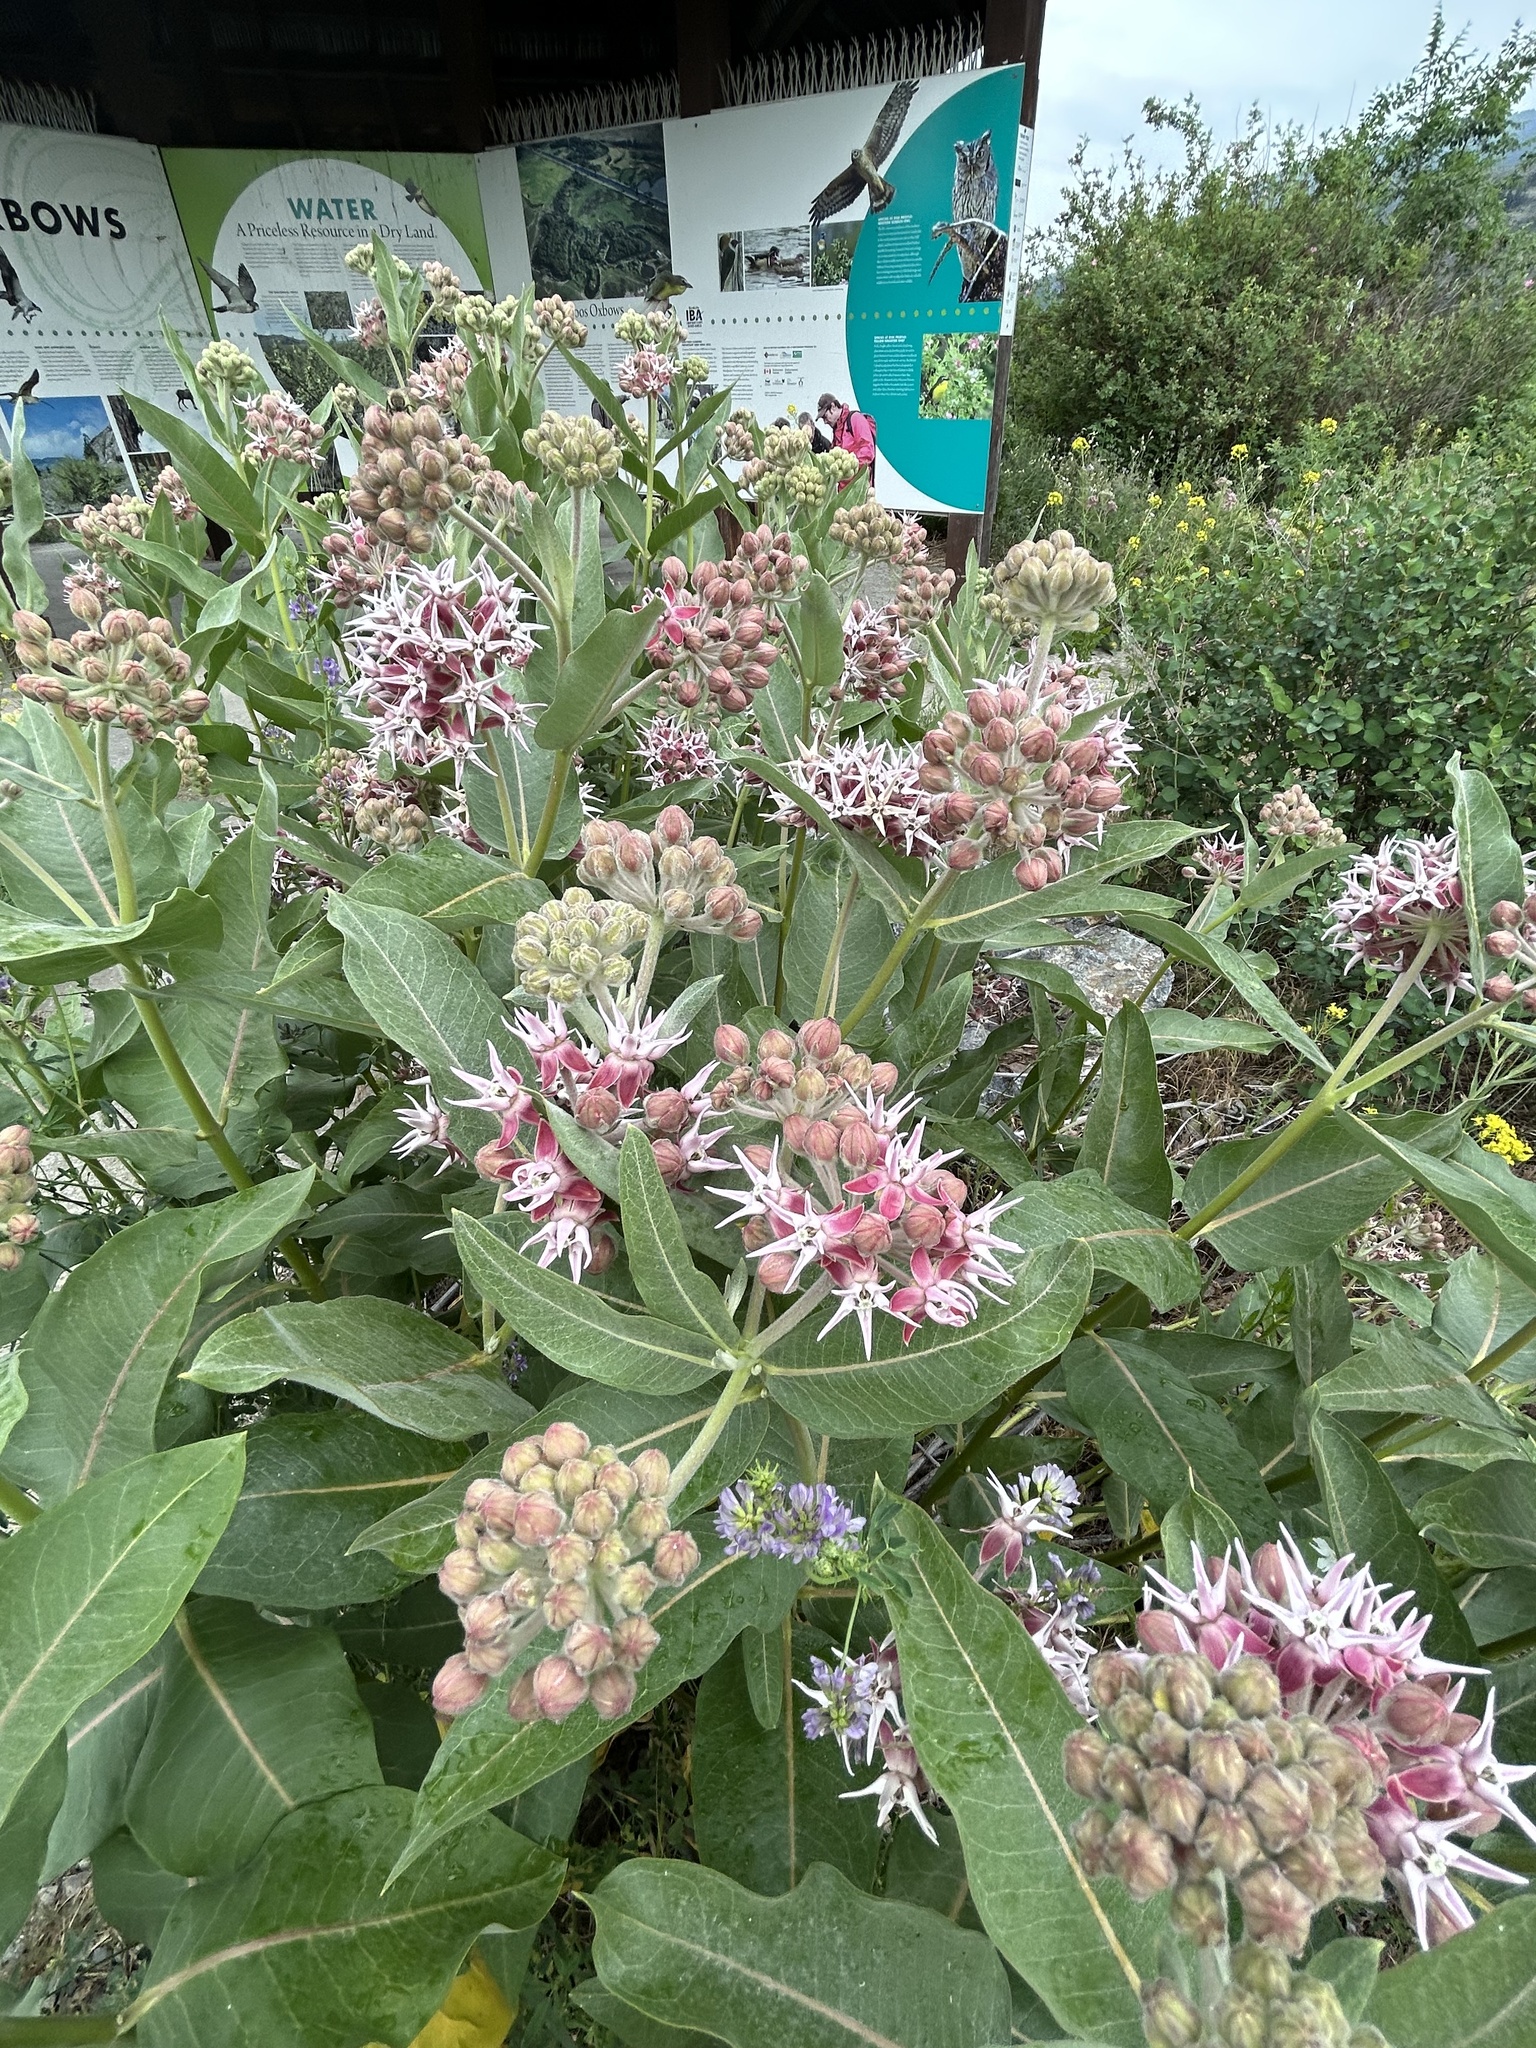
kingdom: Plantae
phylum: Tracheophyta
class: Magnoliopsida
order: Gentianales
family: Apocynaceae
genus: Asclepias
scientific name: Asclepias speciosa
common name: Showy milkweed
